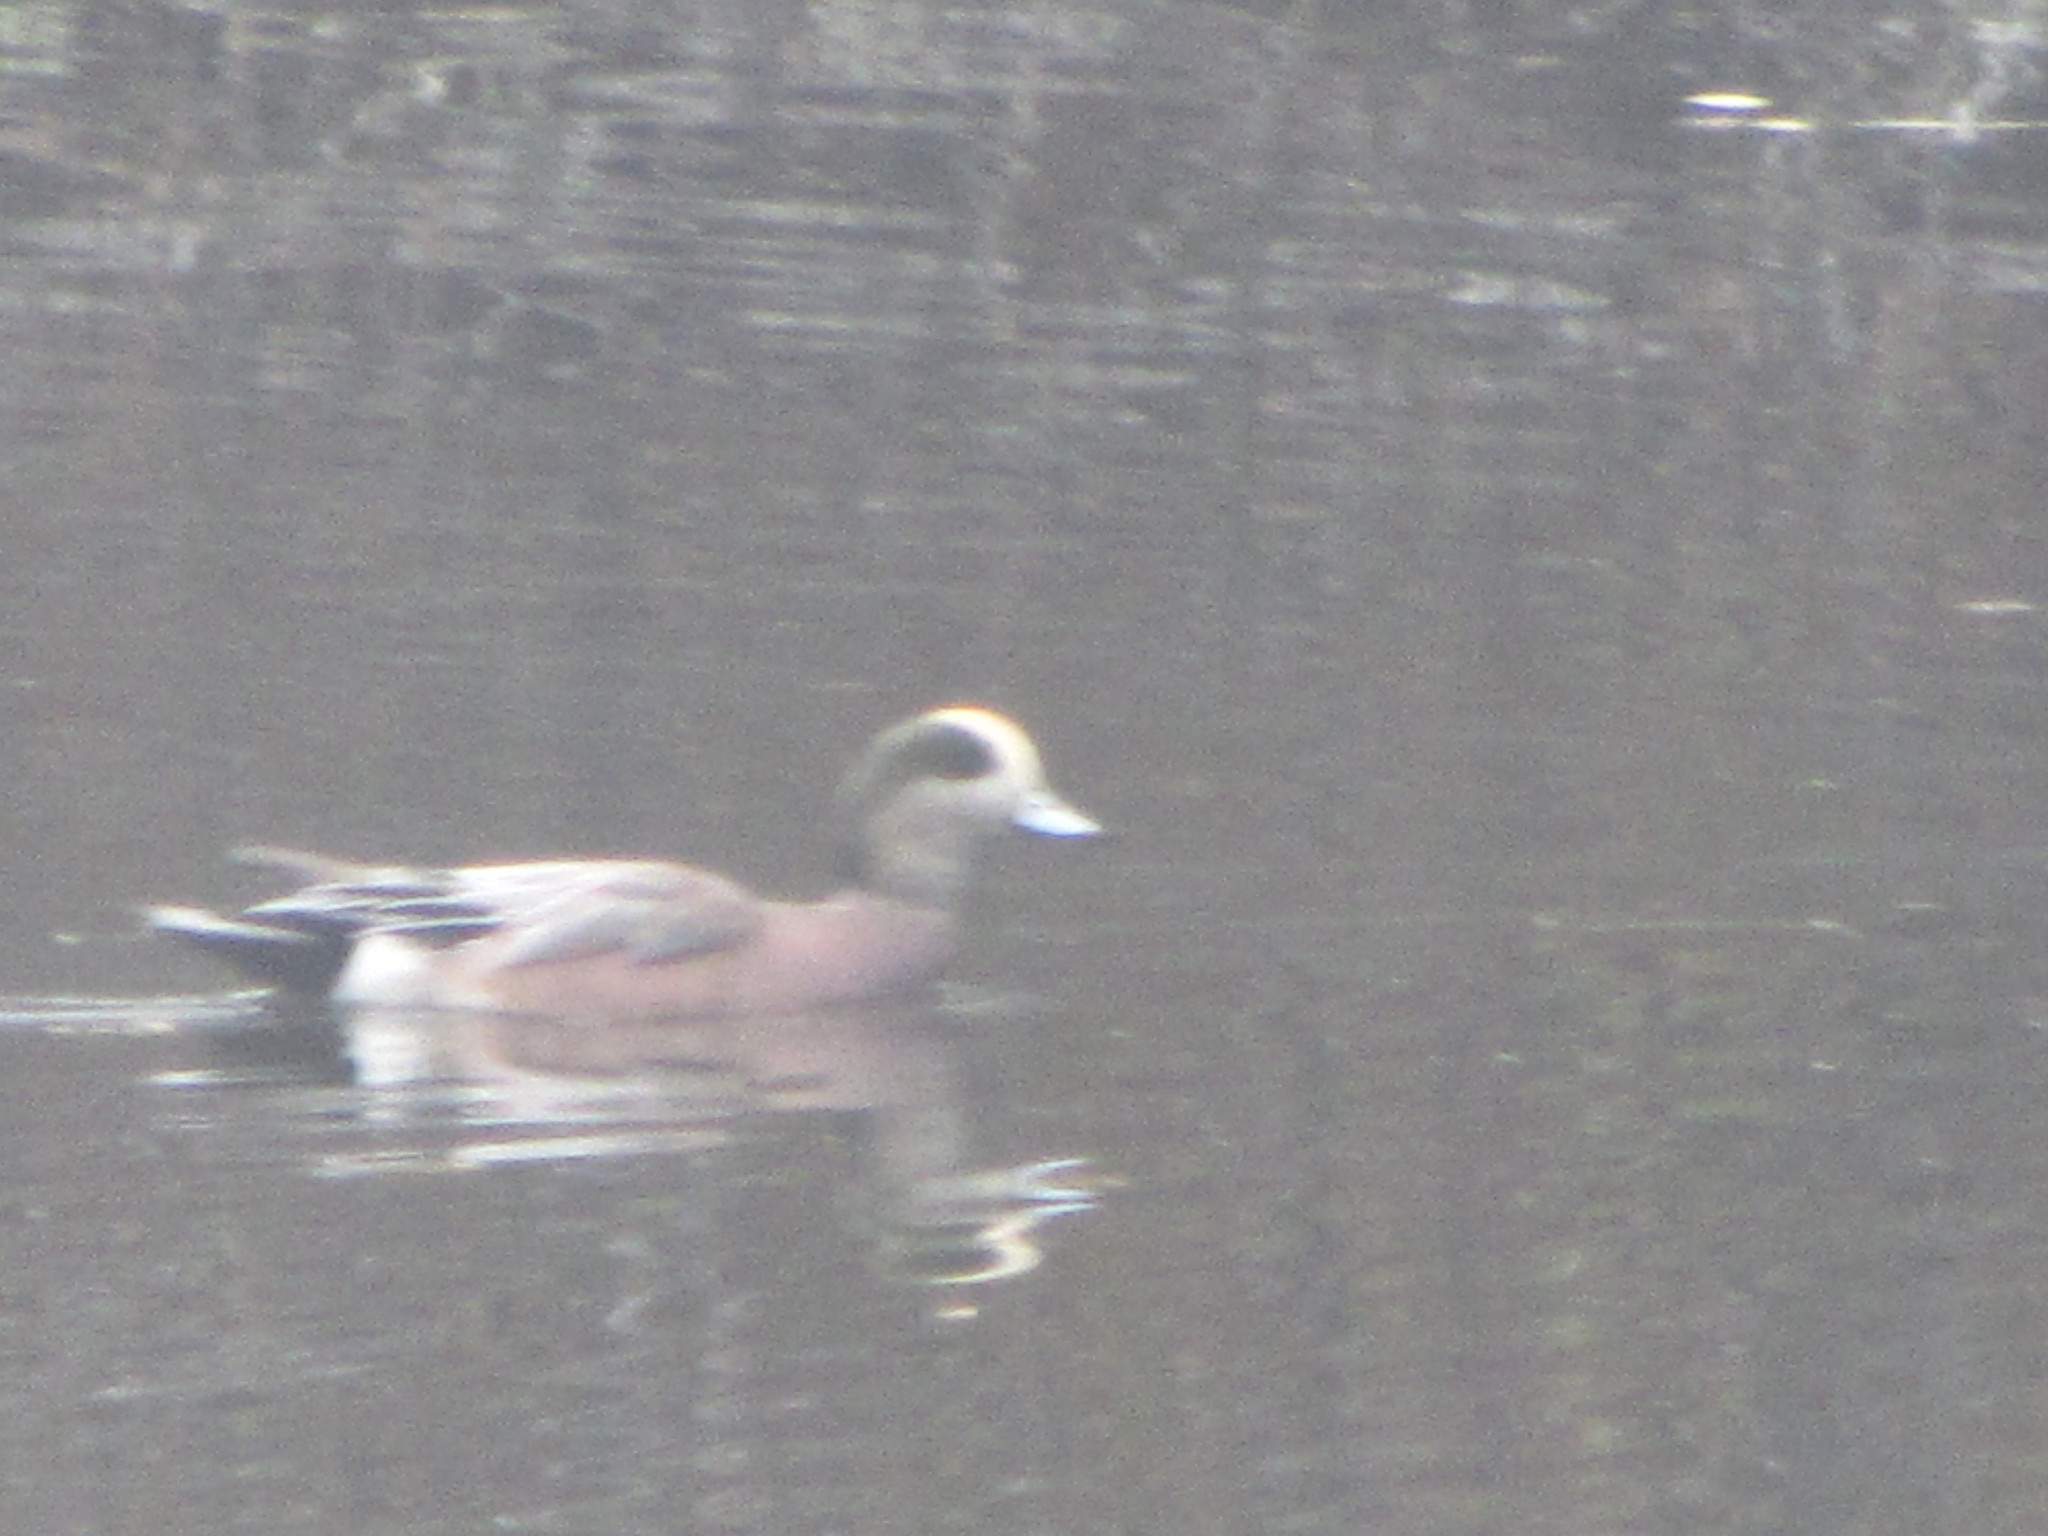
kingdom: Animalia
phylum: Chordata
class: Aves
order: Anseriformes
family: Anatidae
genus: Mareca
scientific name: Mareca americana
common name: American wigeon
